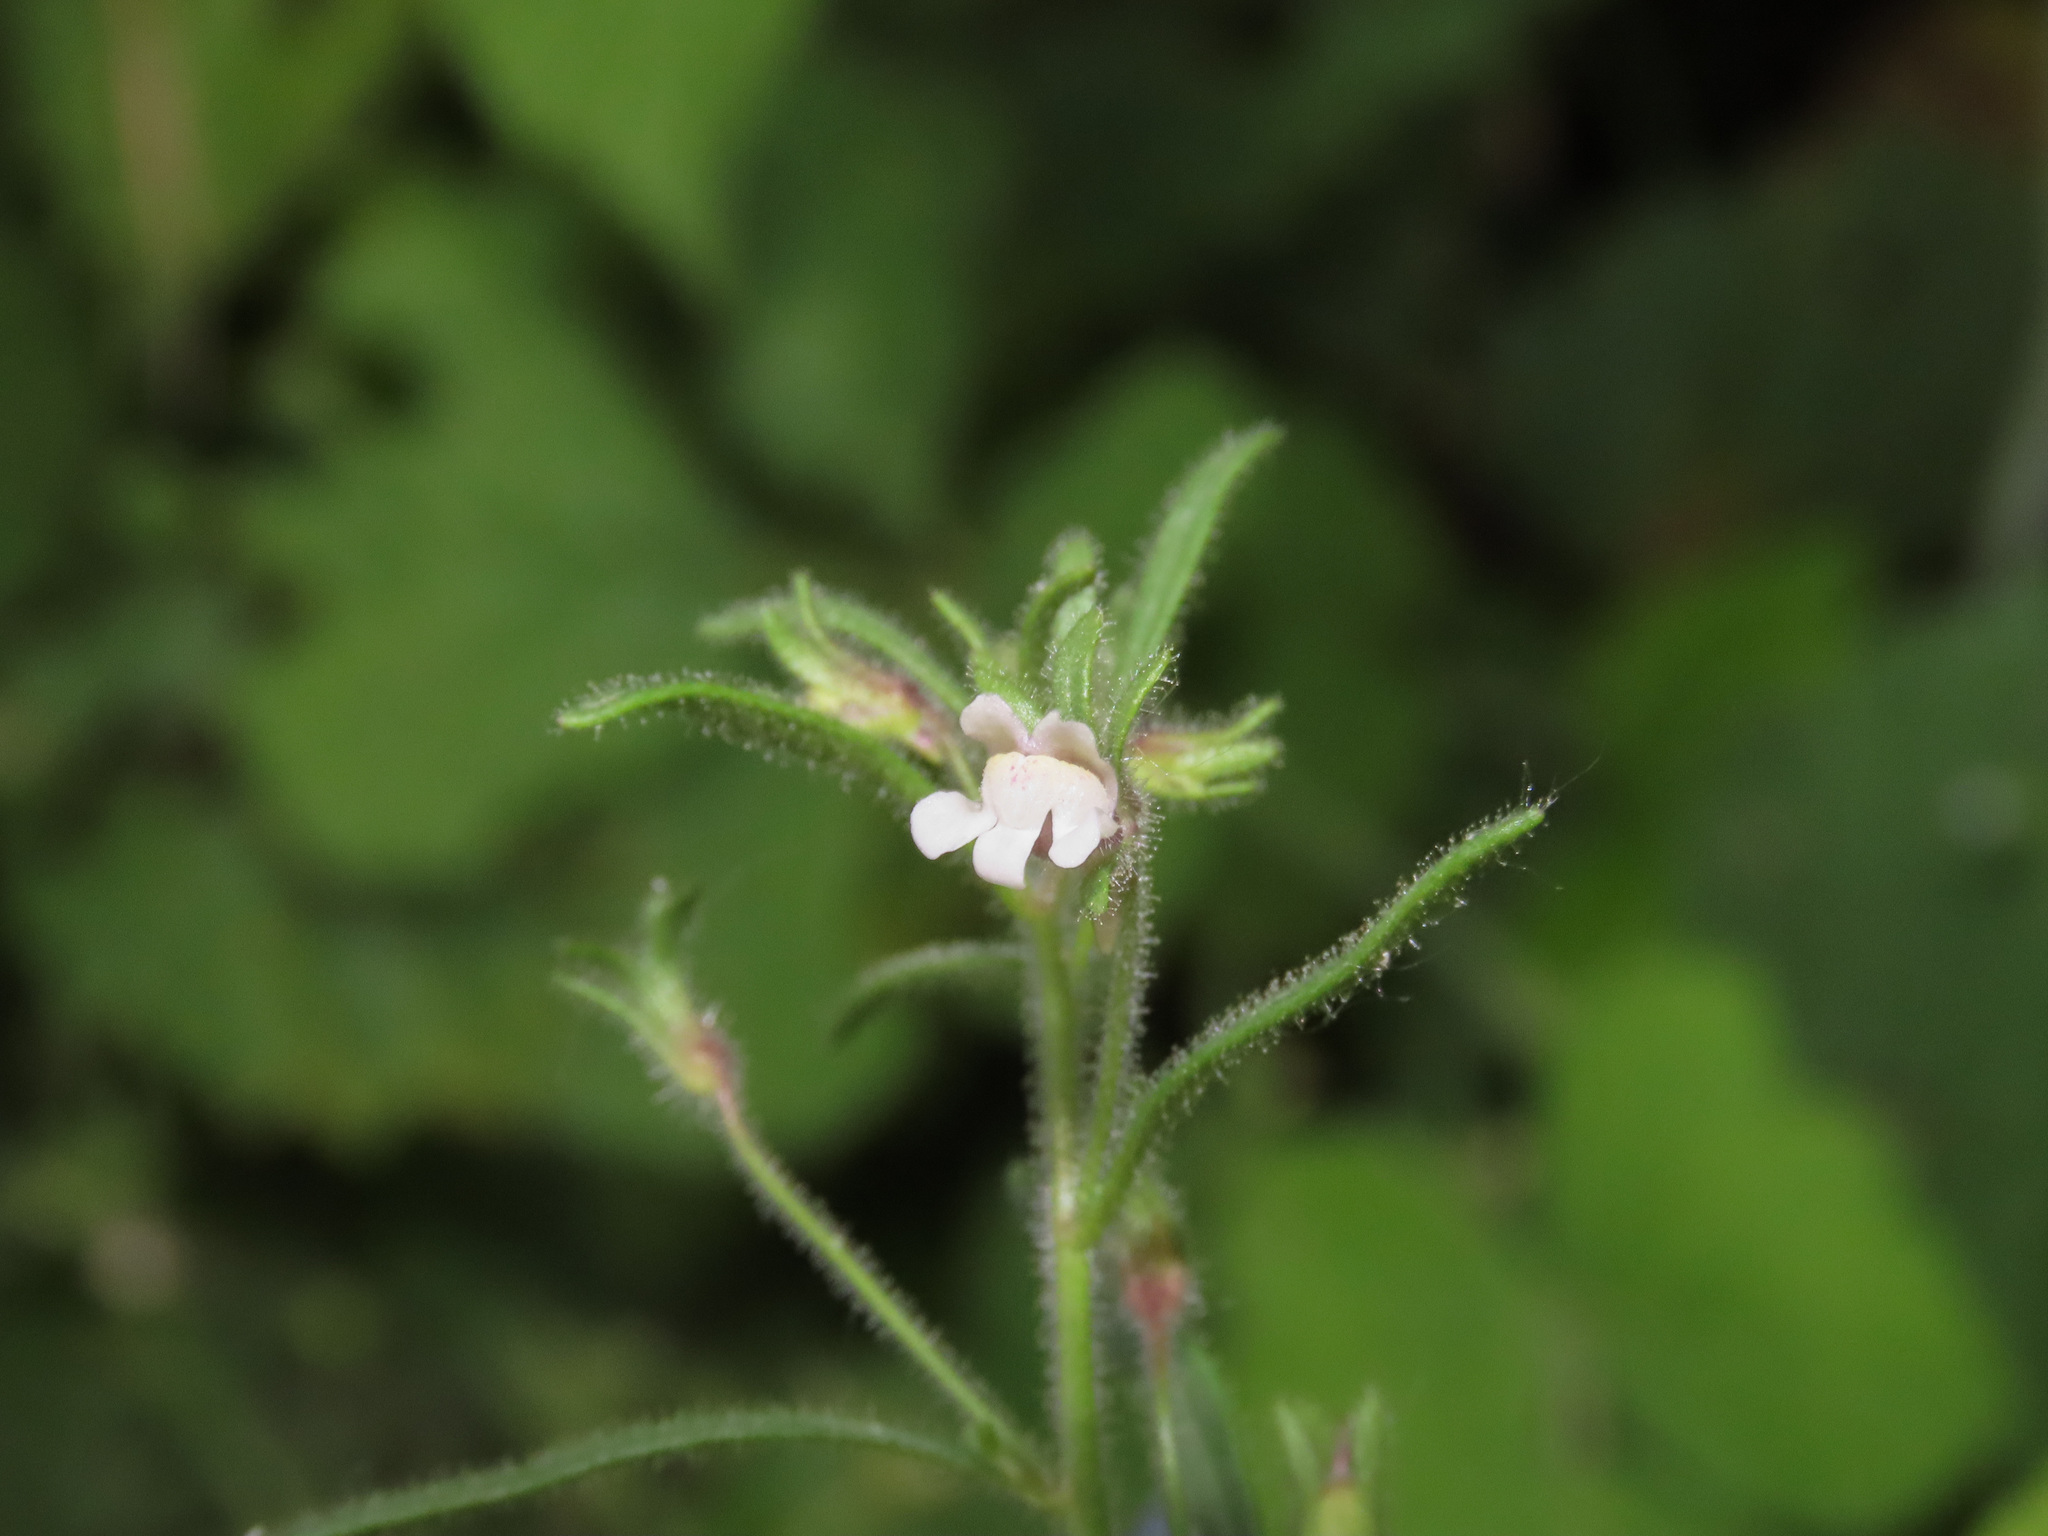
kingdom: Plantae
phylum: Tracheophyta
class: Magnoliopsida
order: Lamiales
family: Plantaginaceae
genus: Chaenorhinum
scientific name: Chaenorhinum minus
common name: Dwarf snapdragon
